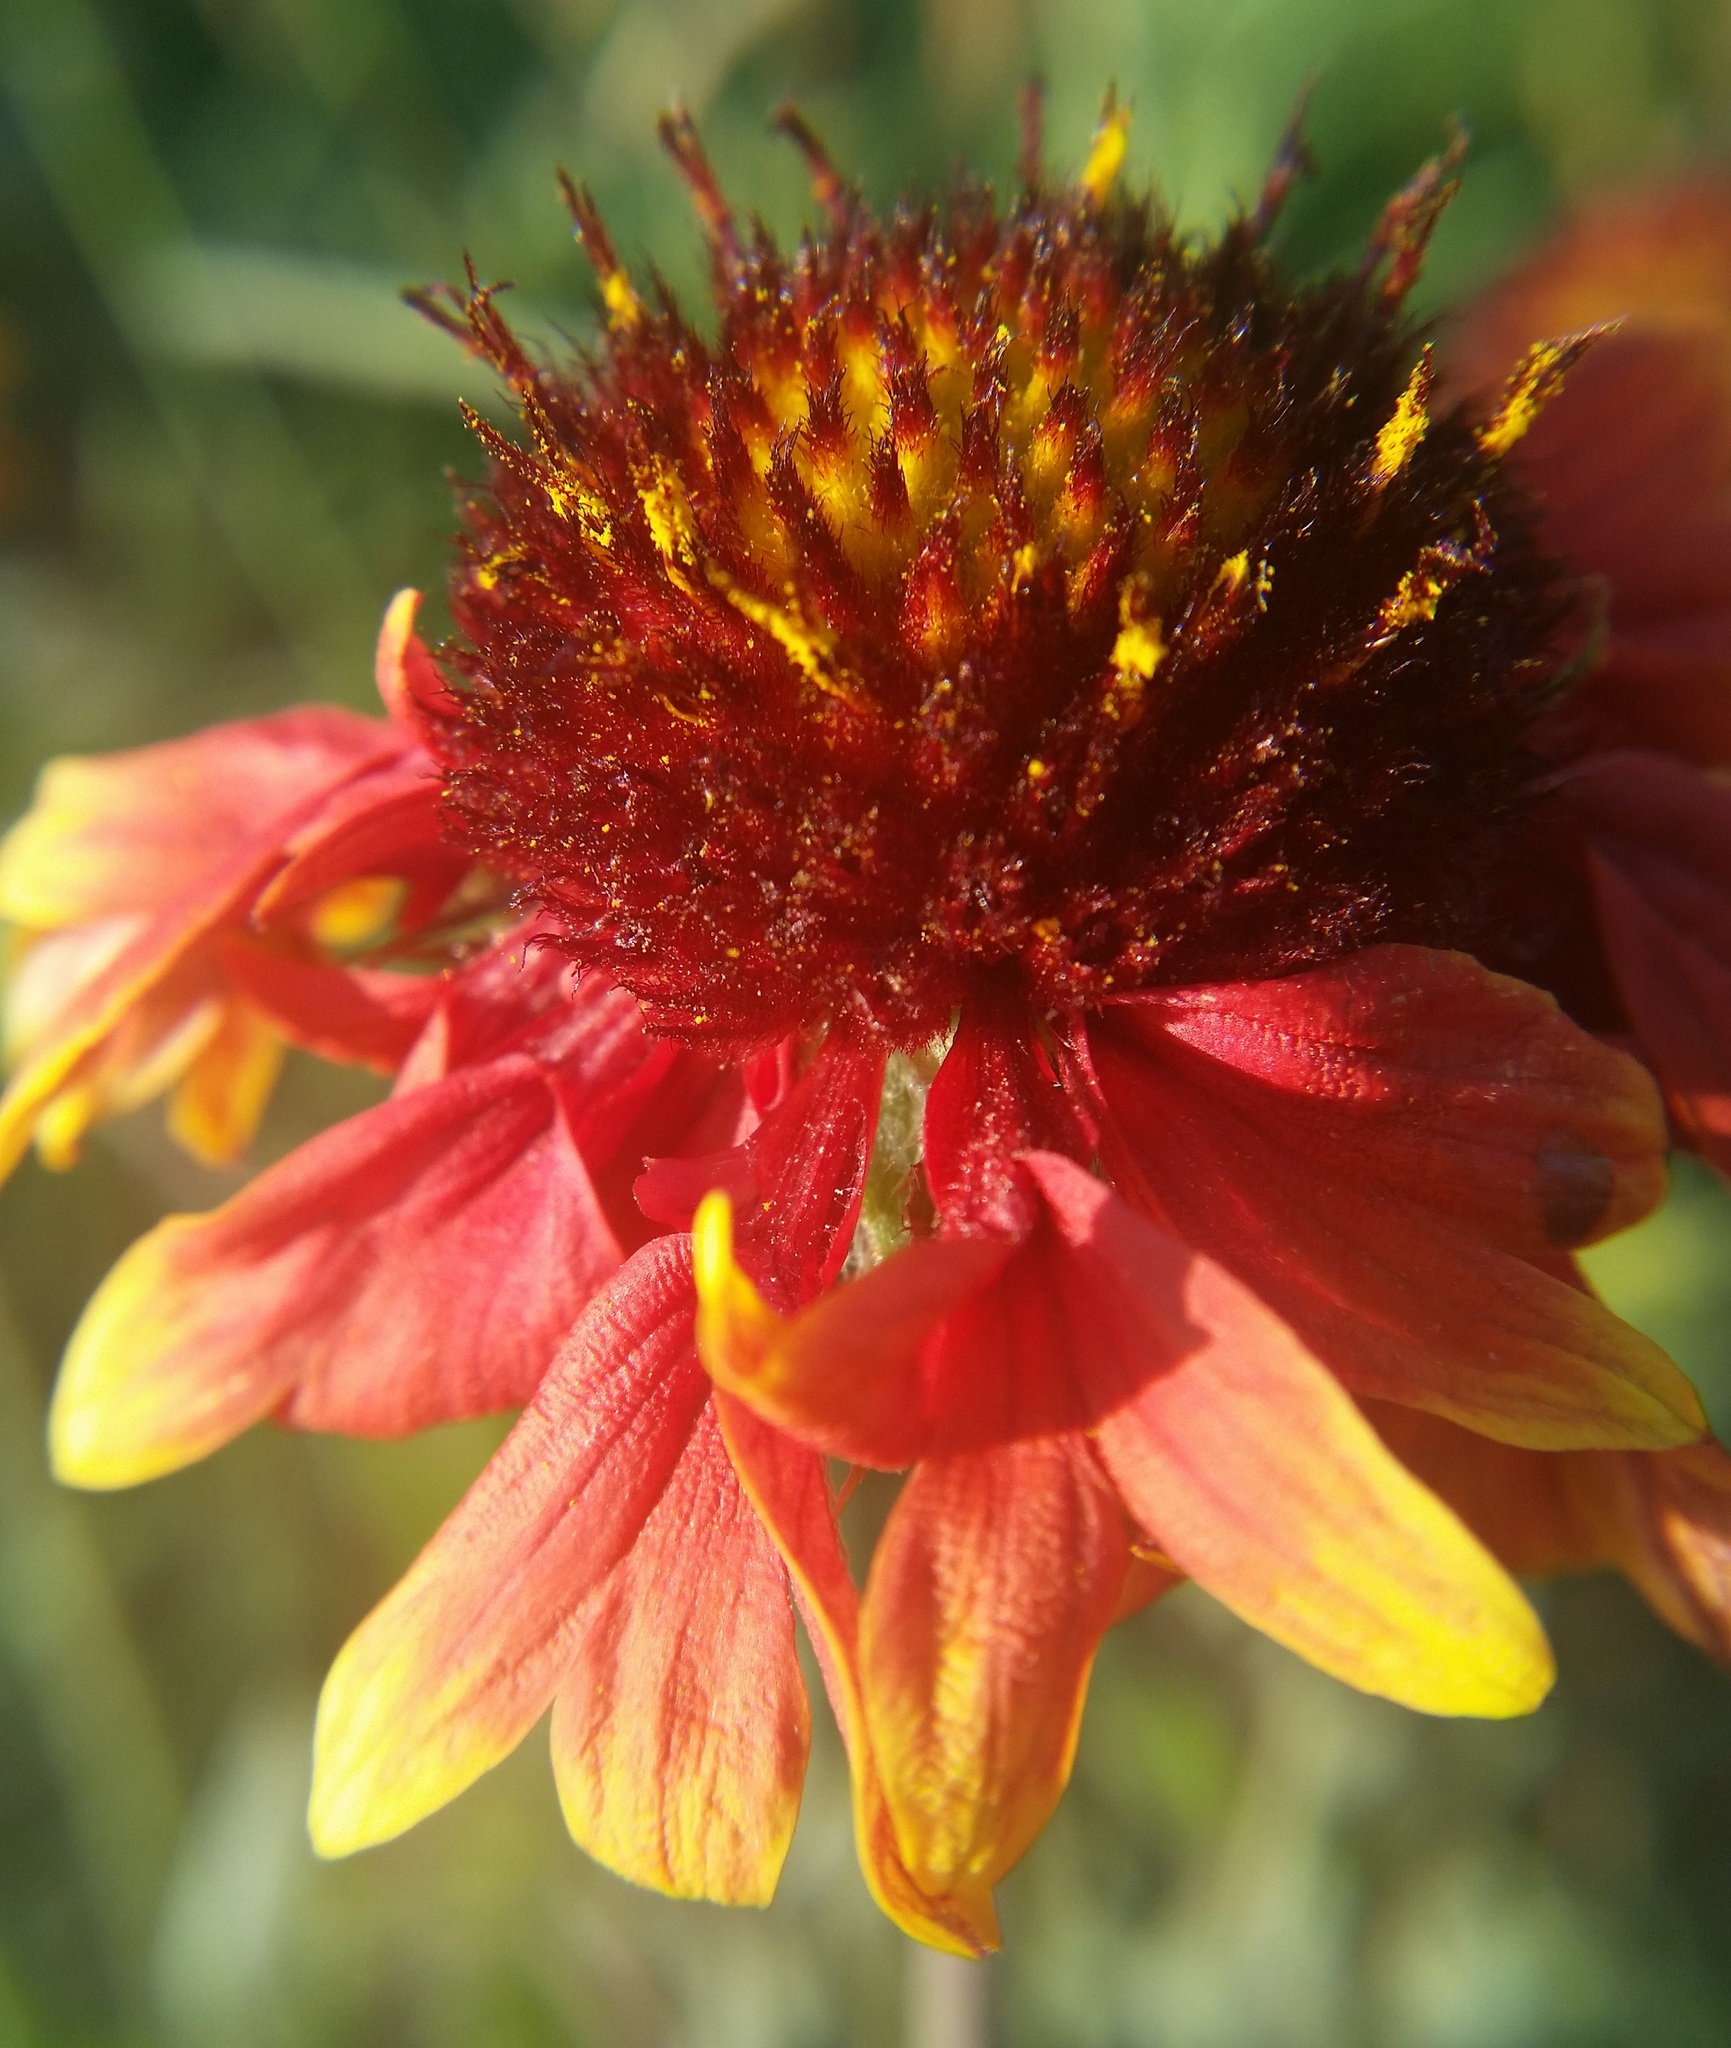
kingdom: Plantae
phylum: Tracheophyta
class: Magnoliopsida
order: Asterales
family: Asteraceae
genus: Gaillardia
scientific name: Gaillardia pulchella
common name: Firewheel
